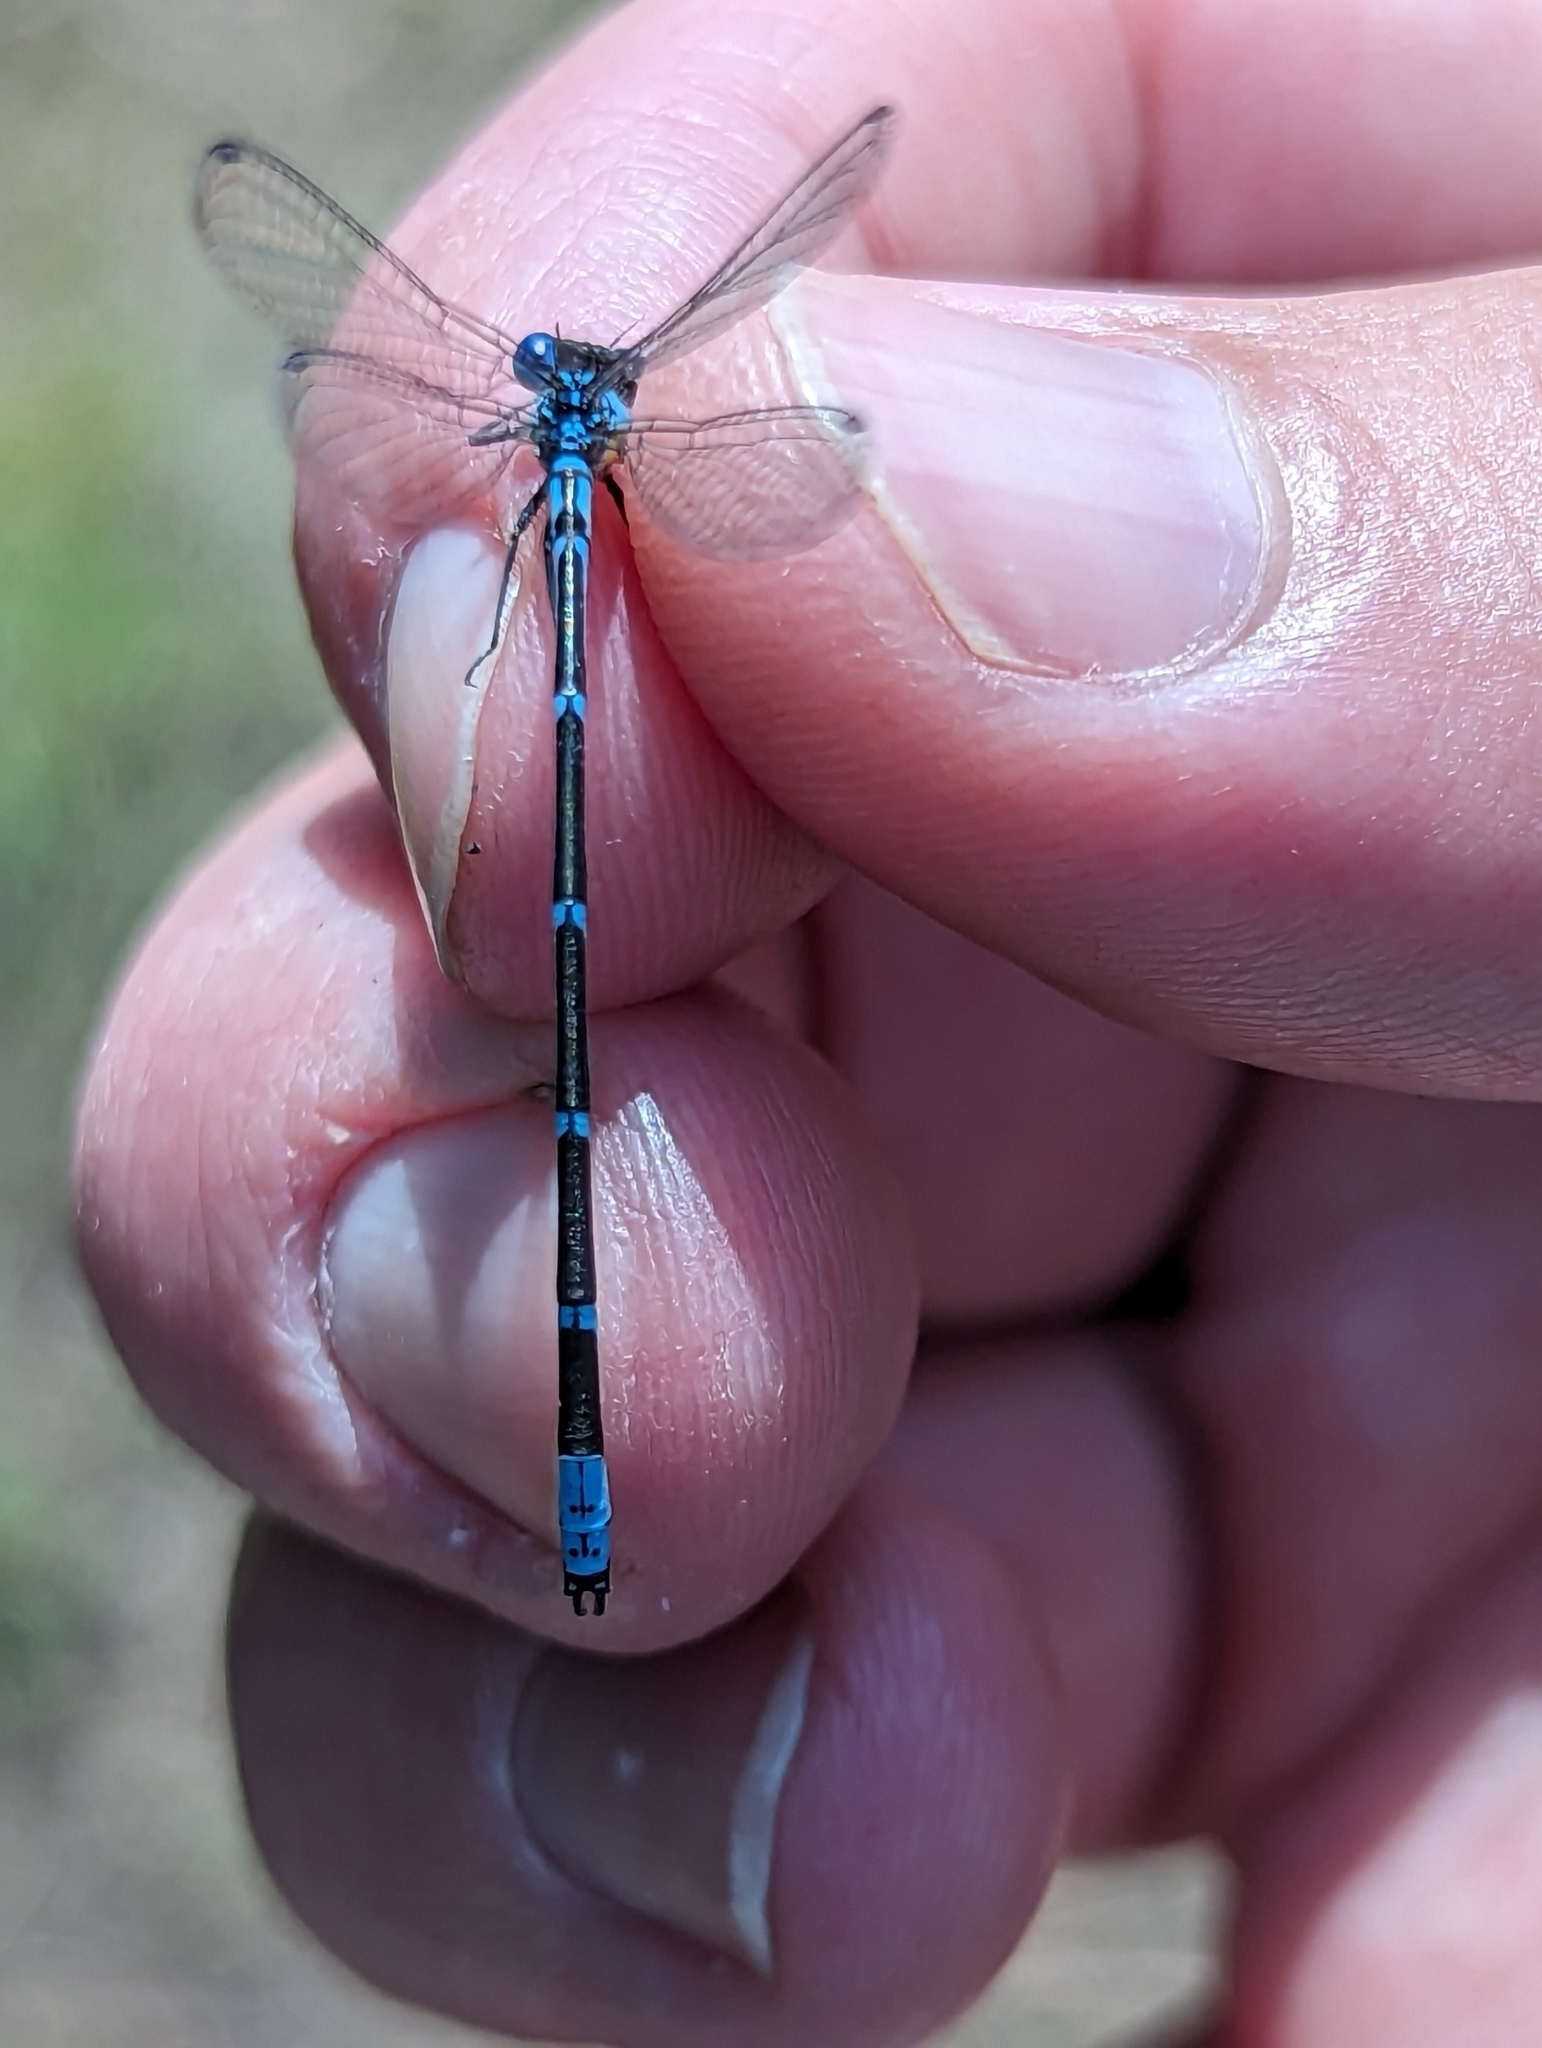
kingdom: Animalia
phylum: Arthropoda
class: Insecta
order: Odonata
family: Coenagrionidae
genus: Chromagrion
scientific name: Chromagrion conditum
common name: Aurora damsel
